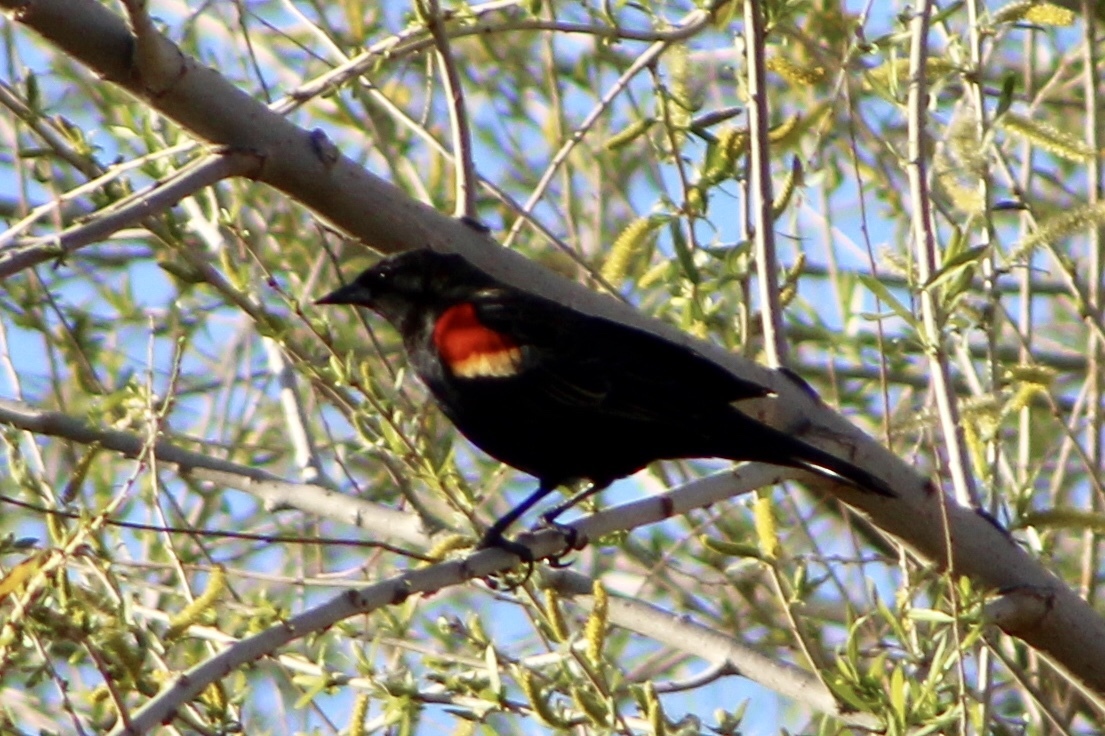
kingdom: Animalia
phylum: Chordata
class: Aves
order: Passeriformes
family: Icteridae
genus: Agelaius
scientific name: Agelaius phoeniceus
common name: Red-winged blackbird
